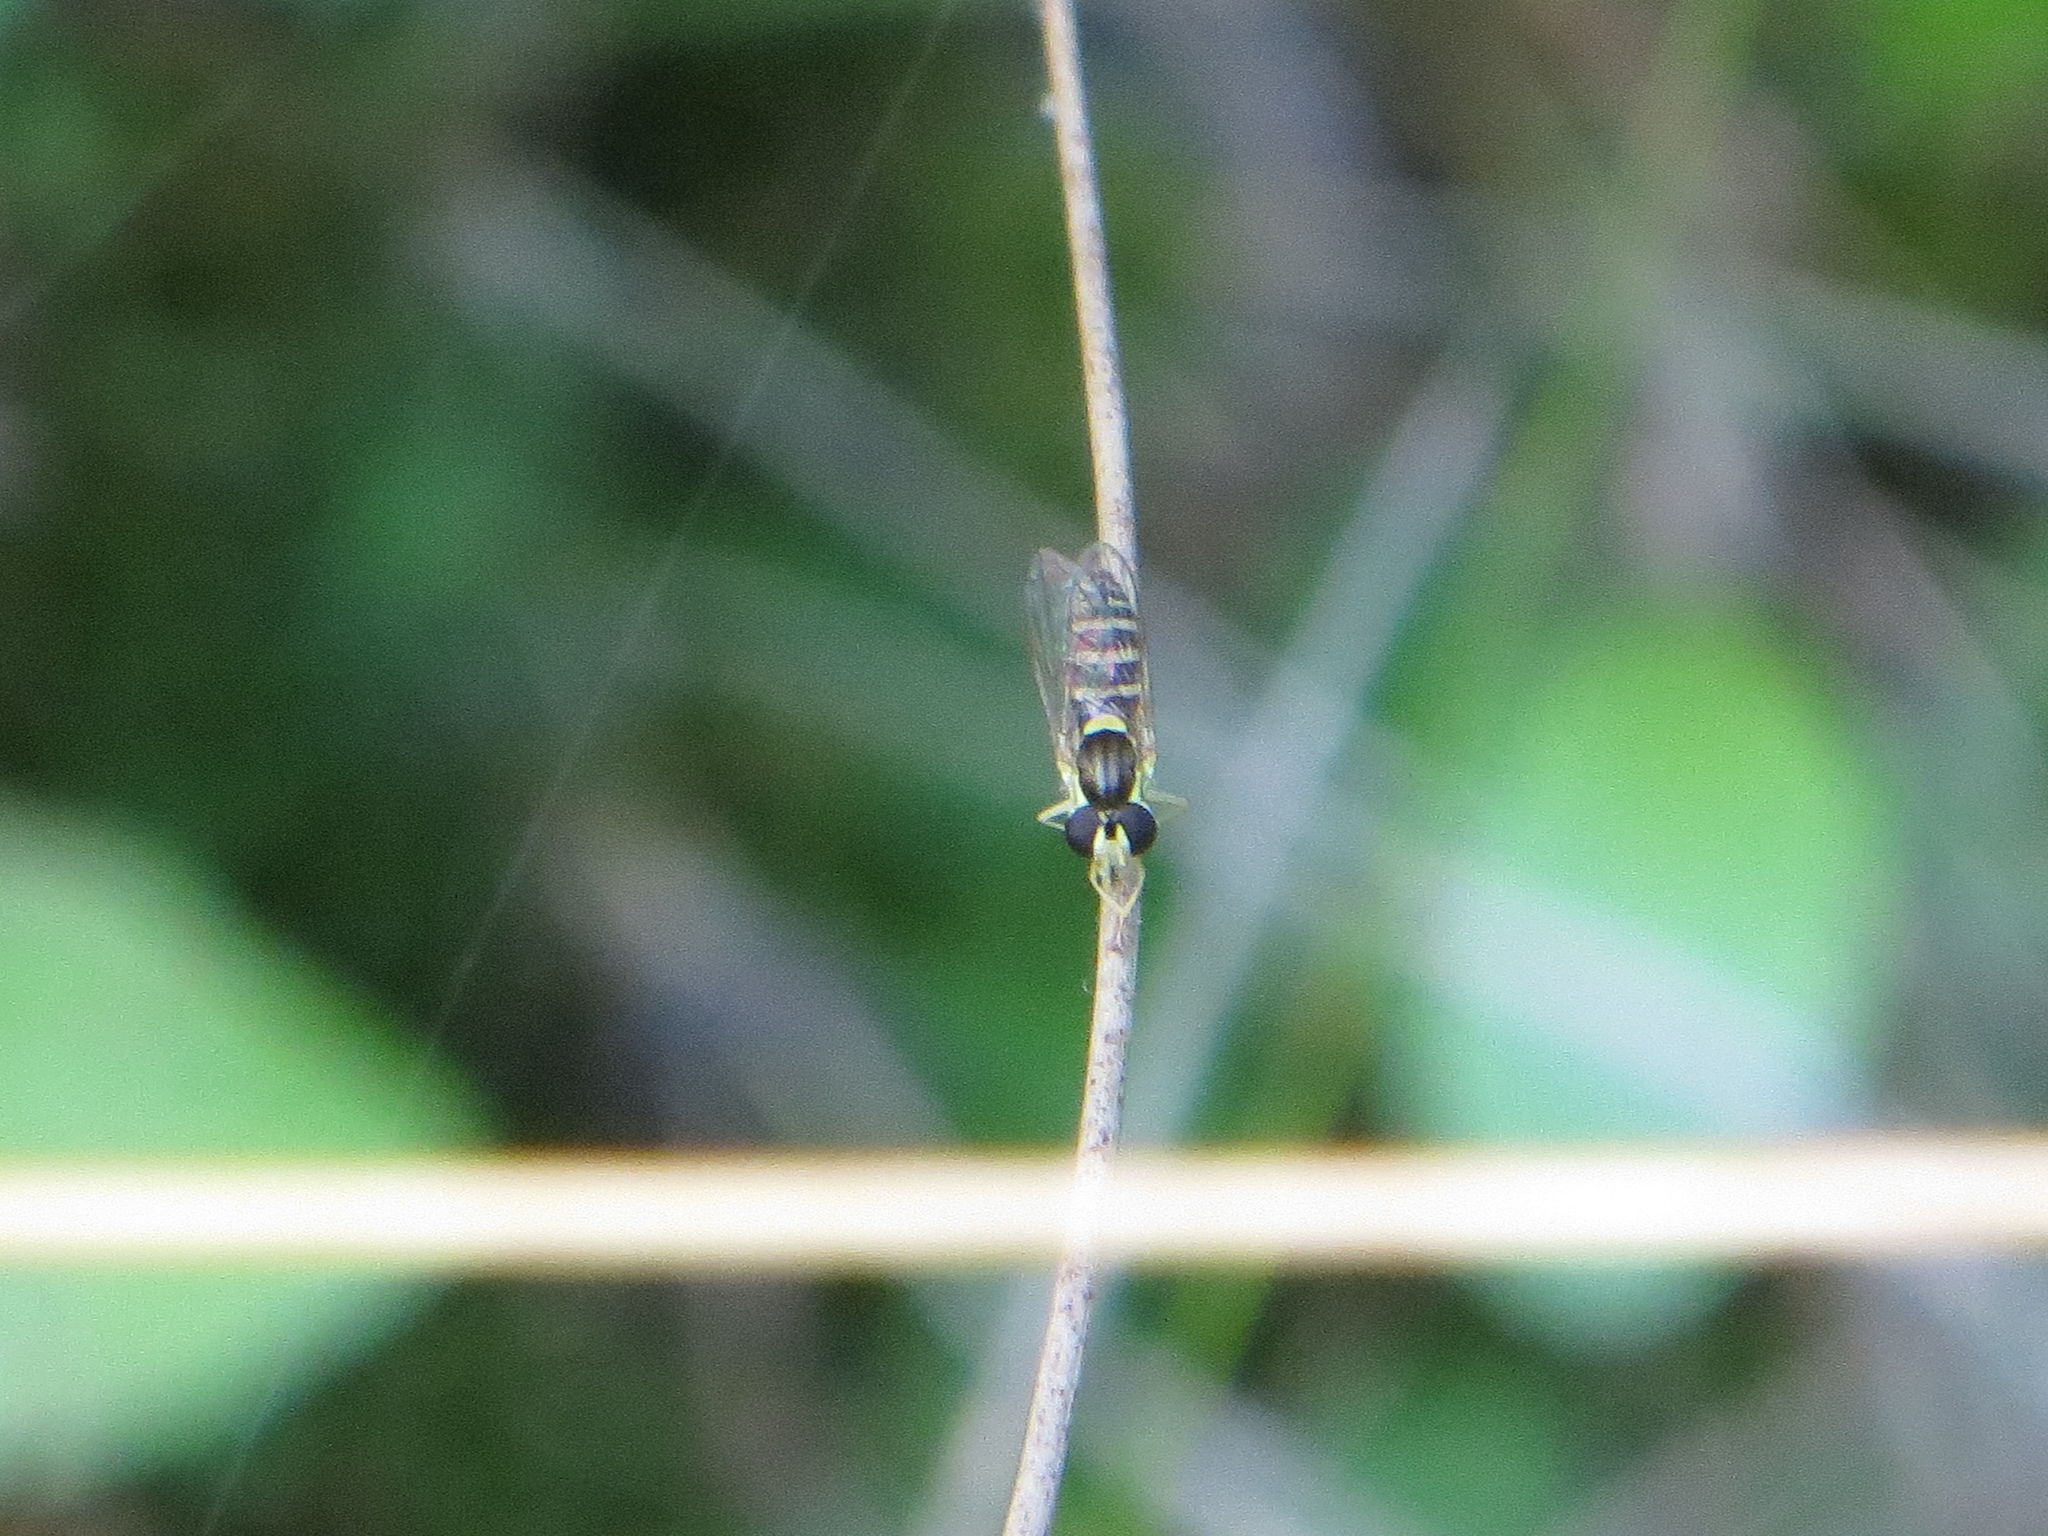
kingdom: Animalia
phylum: Arthropoda
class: Insecta
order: Diptera
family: Syrphidae
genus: Sphaerophoria
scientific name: Sphaerophoria
